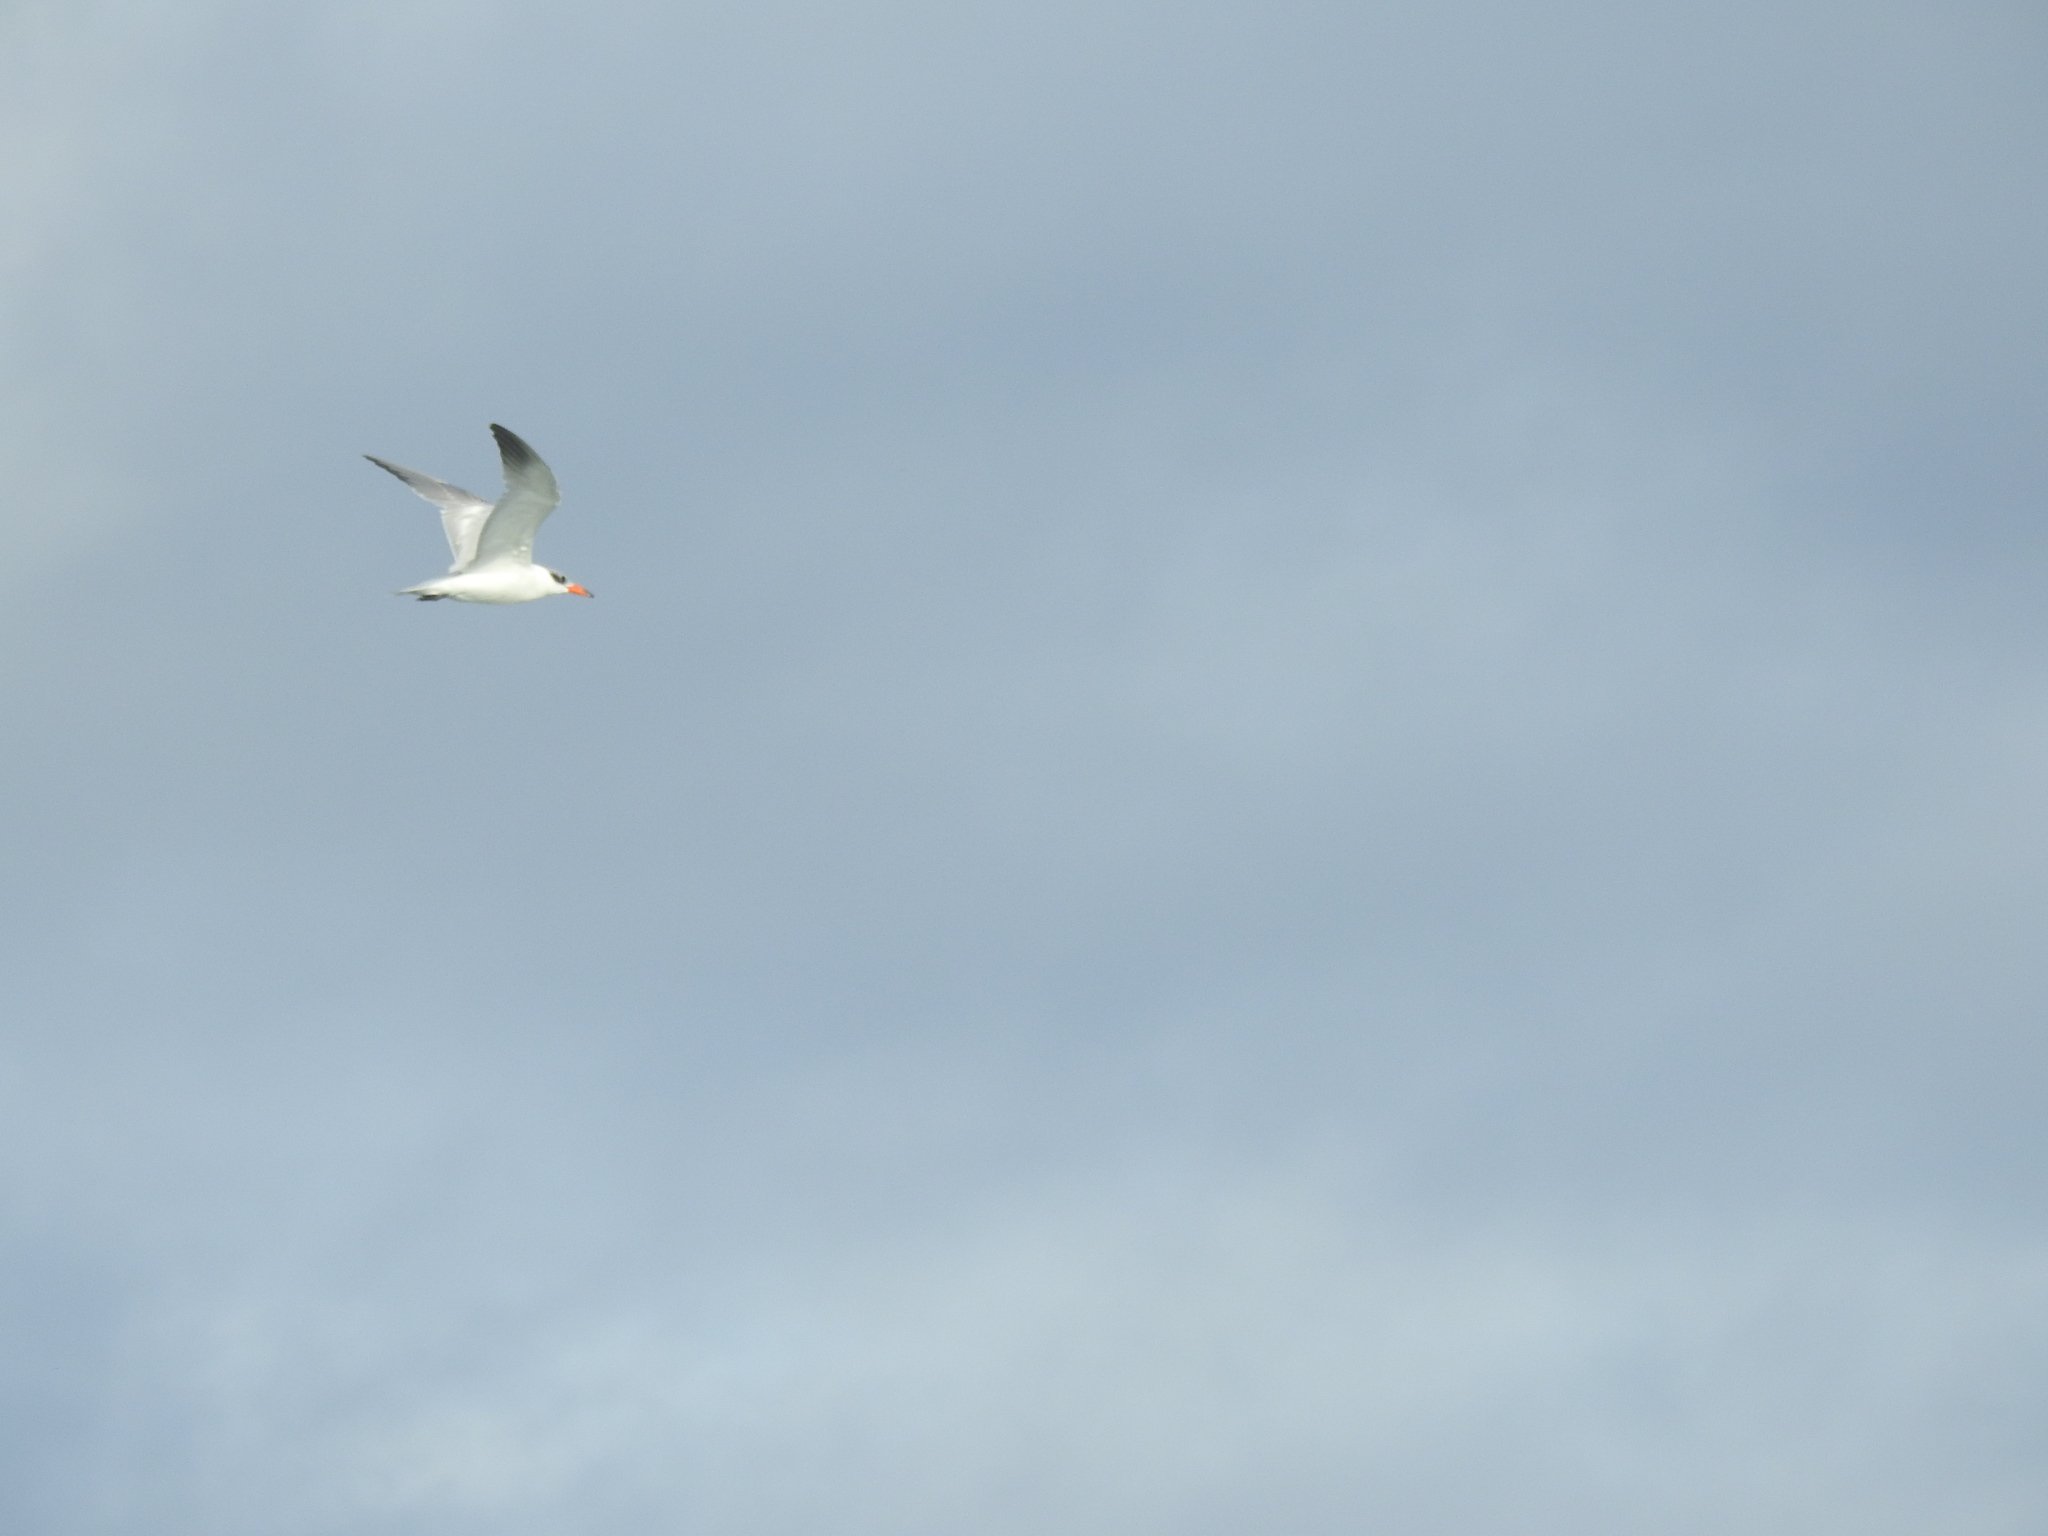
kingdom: Animalia
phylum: Chordata
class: Aves
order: Charadriiformes
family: Laridae
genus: Hydroprogne
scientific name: Hydroprogne caspia
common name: Caspian tern
